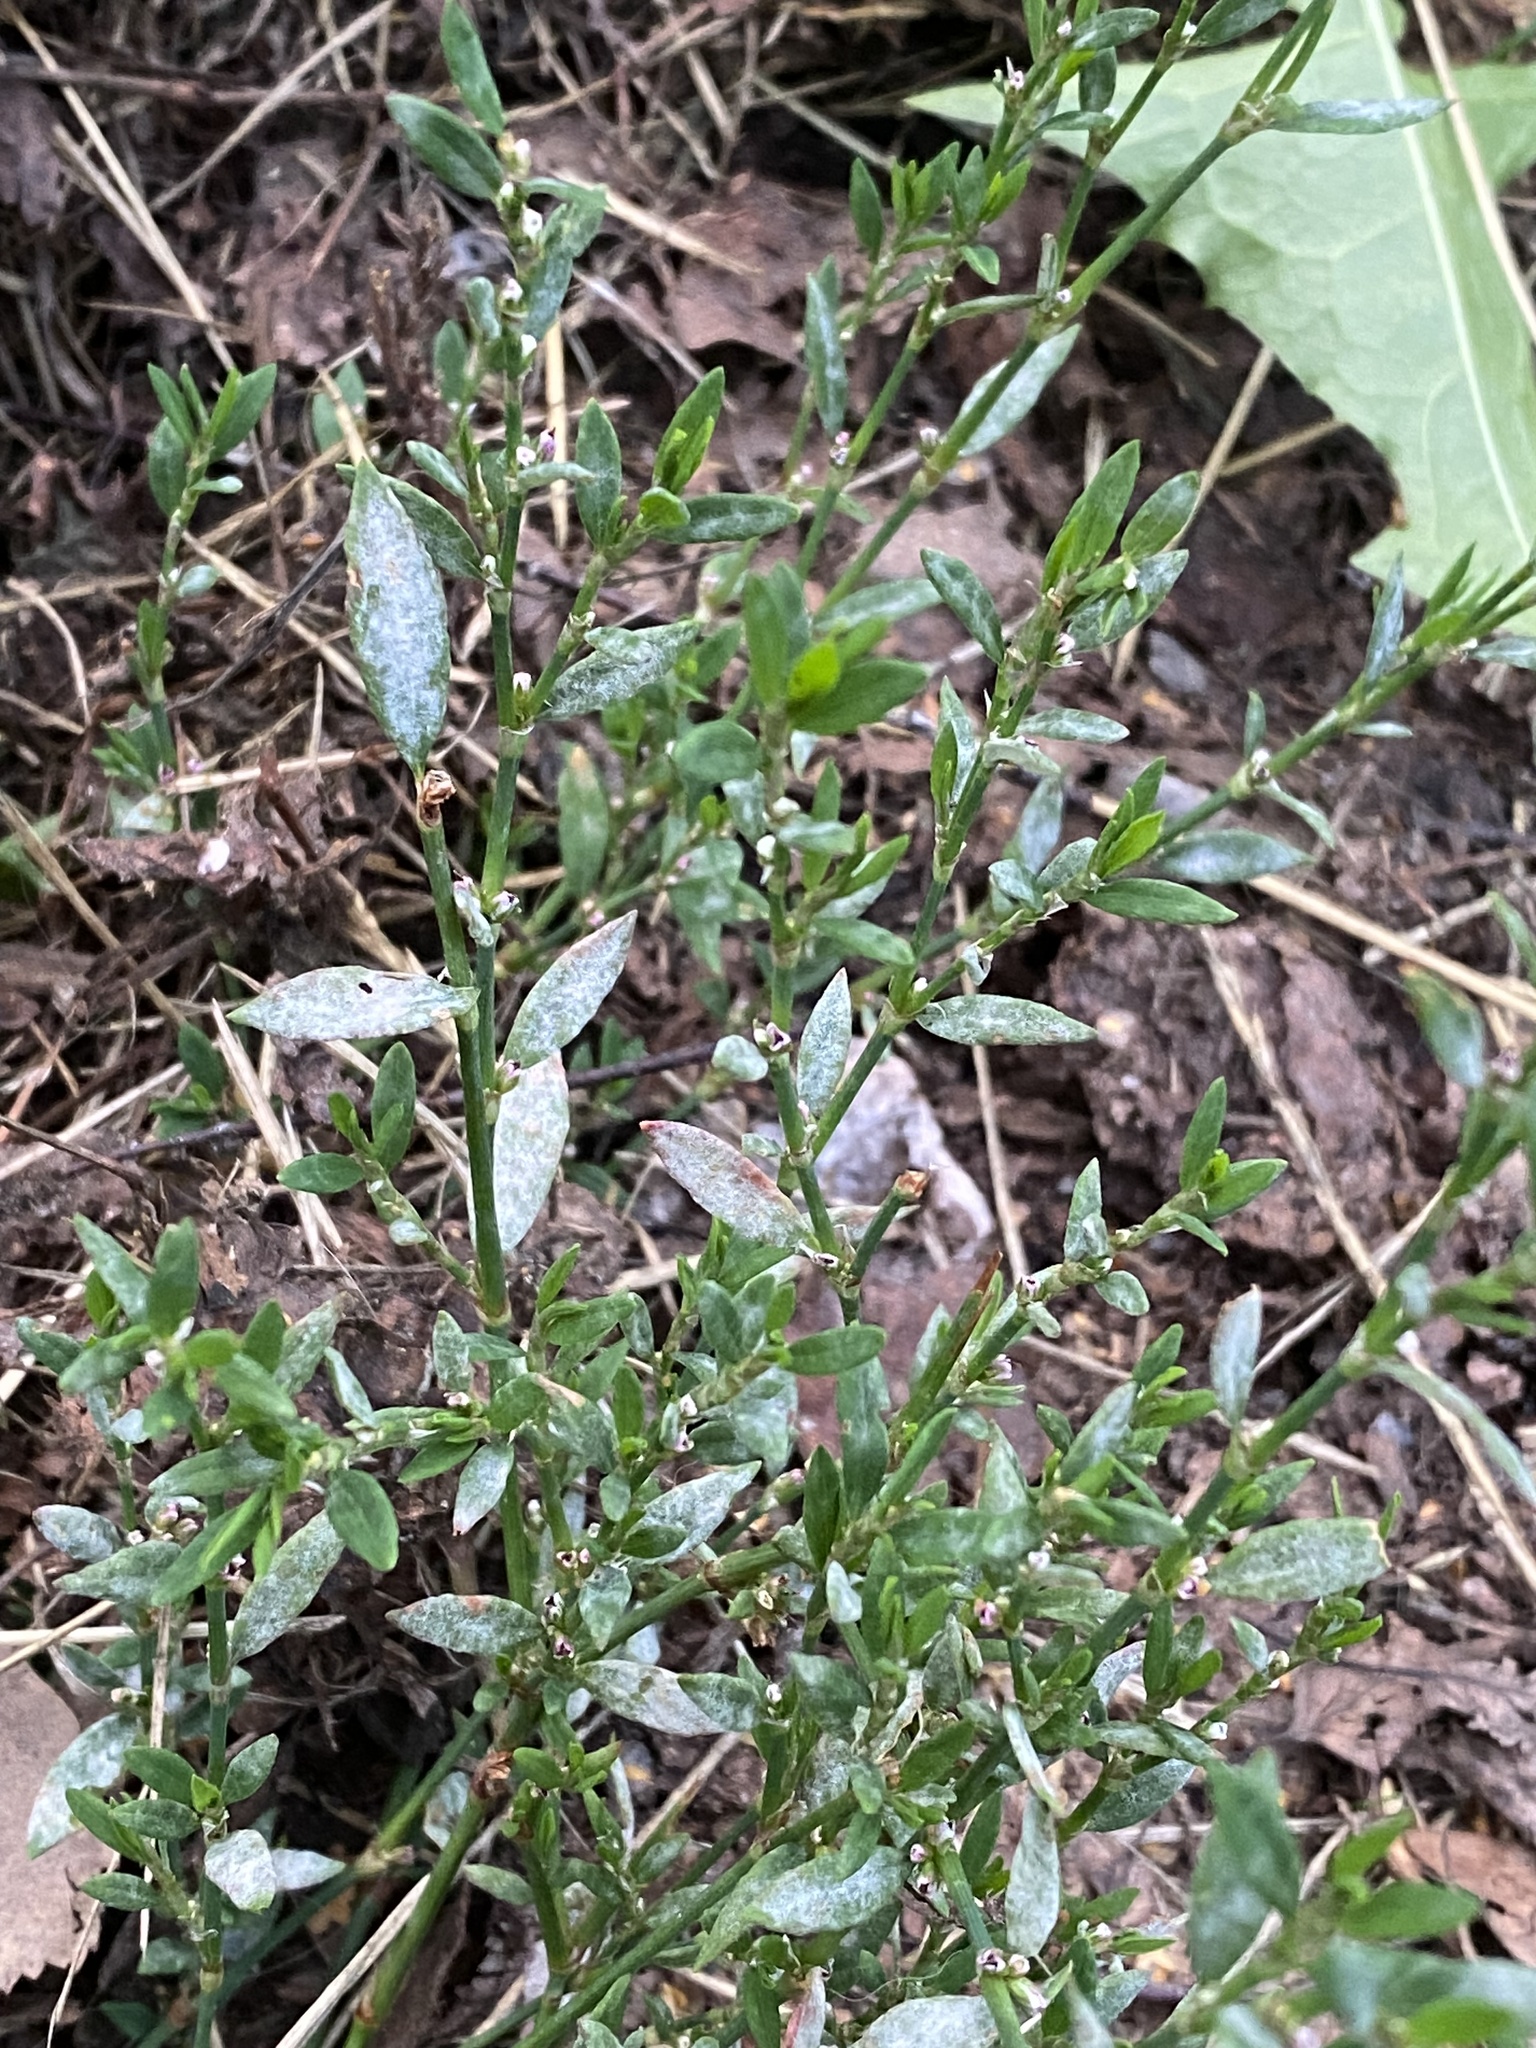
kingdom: Plantae
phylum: Tracheophyta
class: Magnoliopsida
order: Caryophyllales
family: Polygonaceae
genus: Polygonum
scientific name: Polygonum aviculare
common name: Prostrate knotweed
